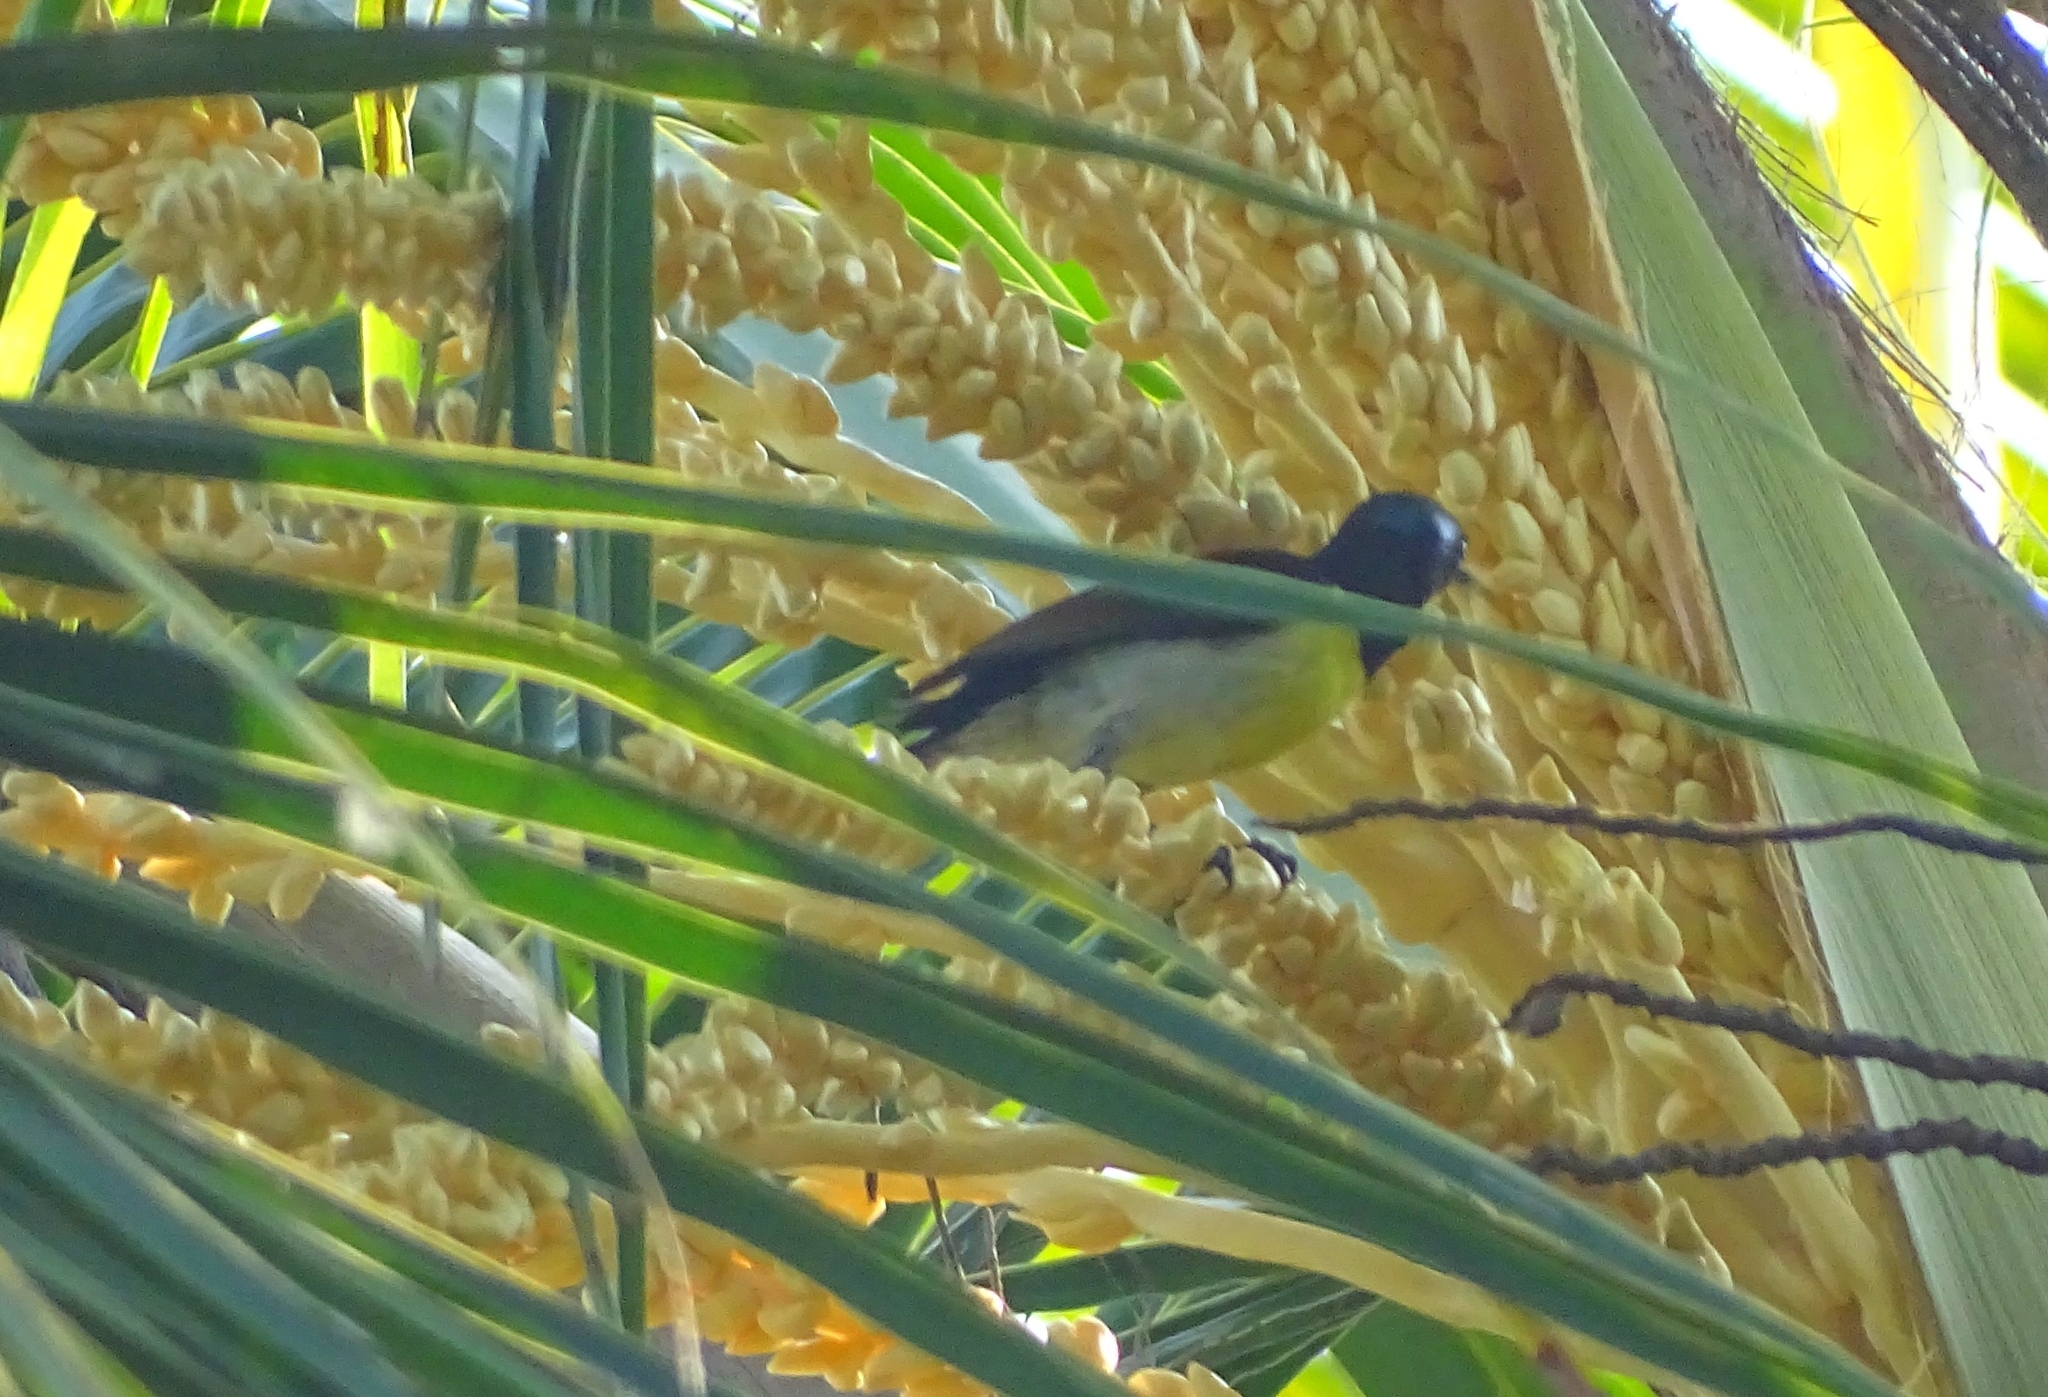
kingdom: Animalia
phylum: Chordata
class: Aves
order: Passeriformes
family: Nectariniidae
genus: Leptocoma
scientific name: Leptocoma zeylonica
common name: Purple-rumped sunbird
